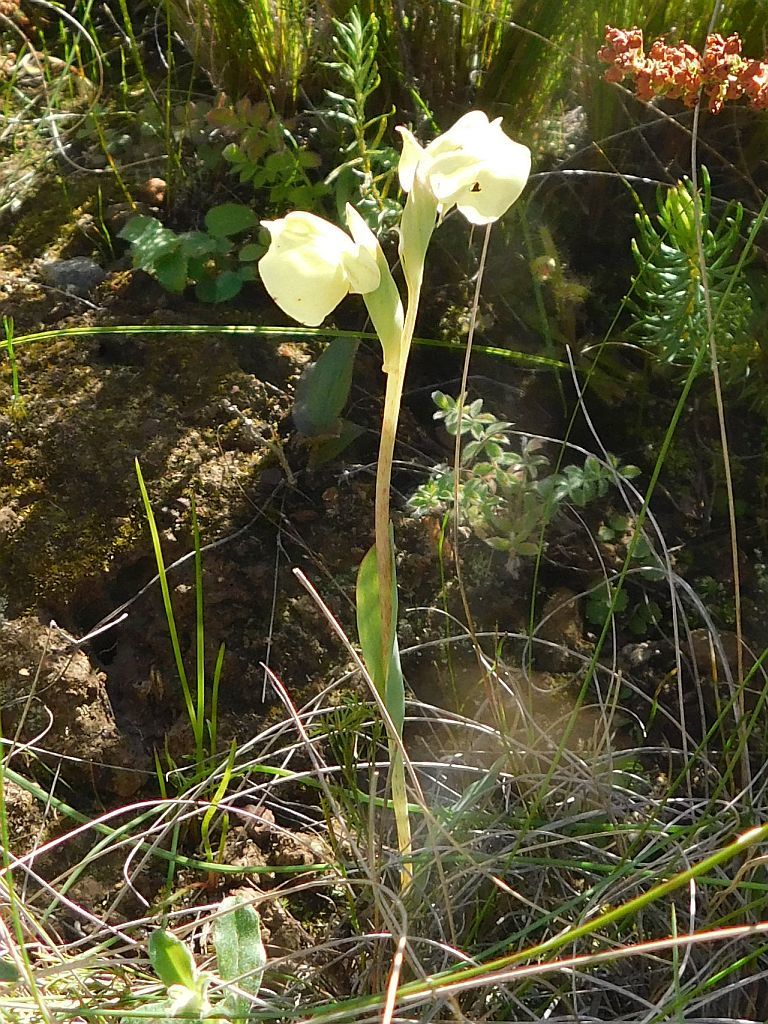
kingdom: Plantae
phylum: Tracheophyta
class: Liliopsida
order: Asparagales
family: Orchidaceae
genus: Pterygodium
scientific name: Pterygodium catholicum
